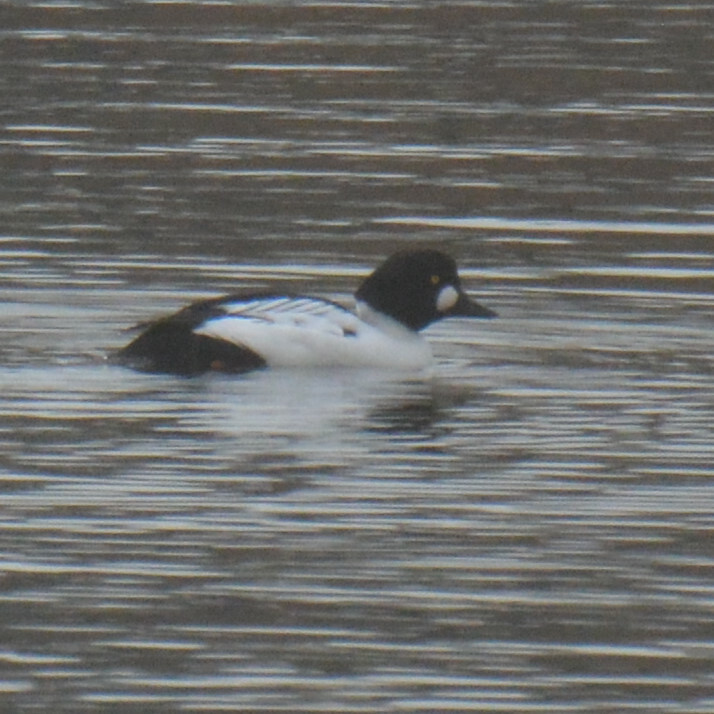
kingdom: Animalia
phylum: Chordata
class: Aves
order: Anseriformes
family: Anatidae
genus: Bucephala
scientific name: Bucephala clangula
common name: Common goldeneye
